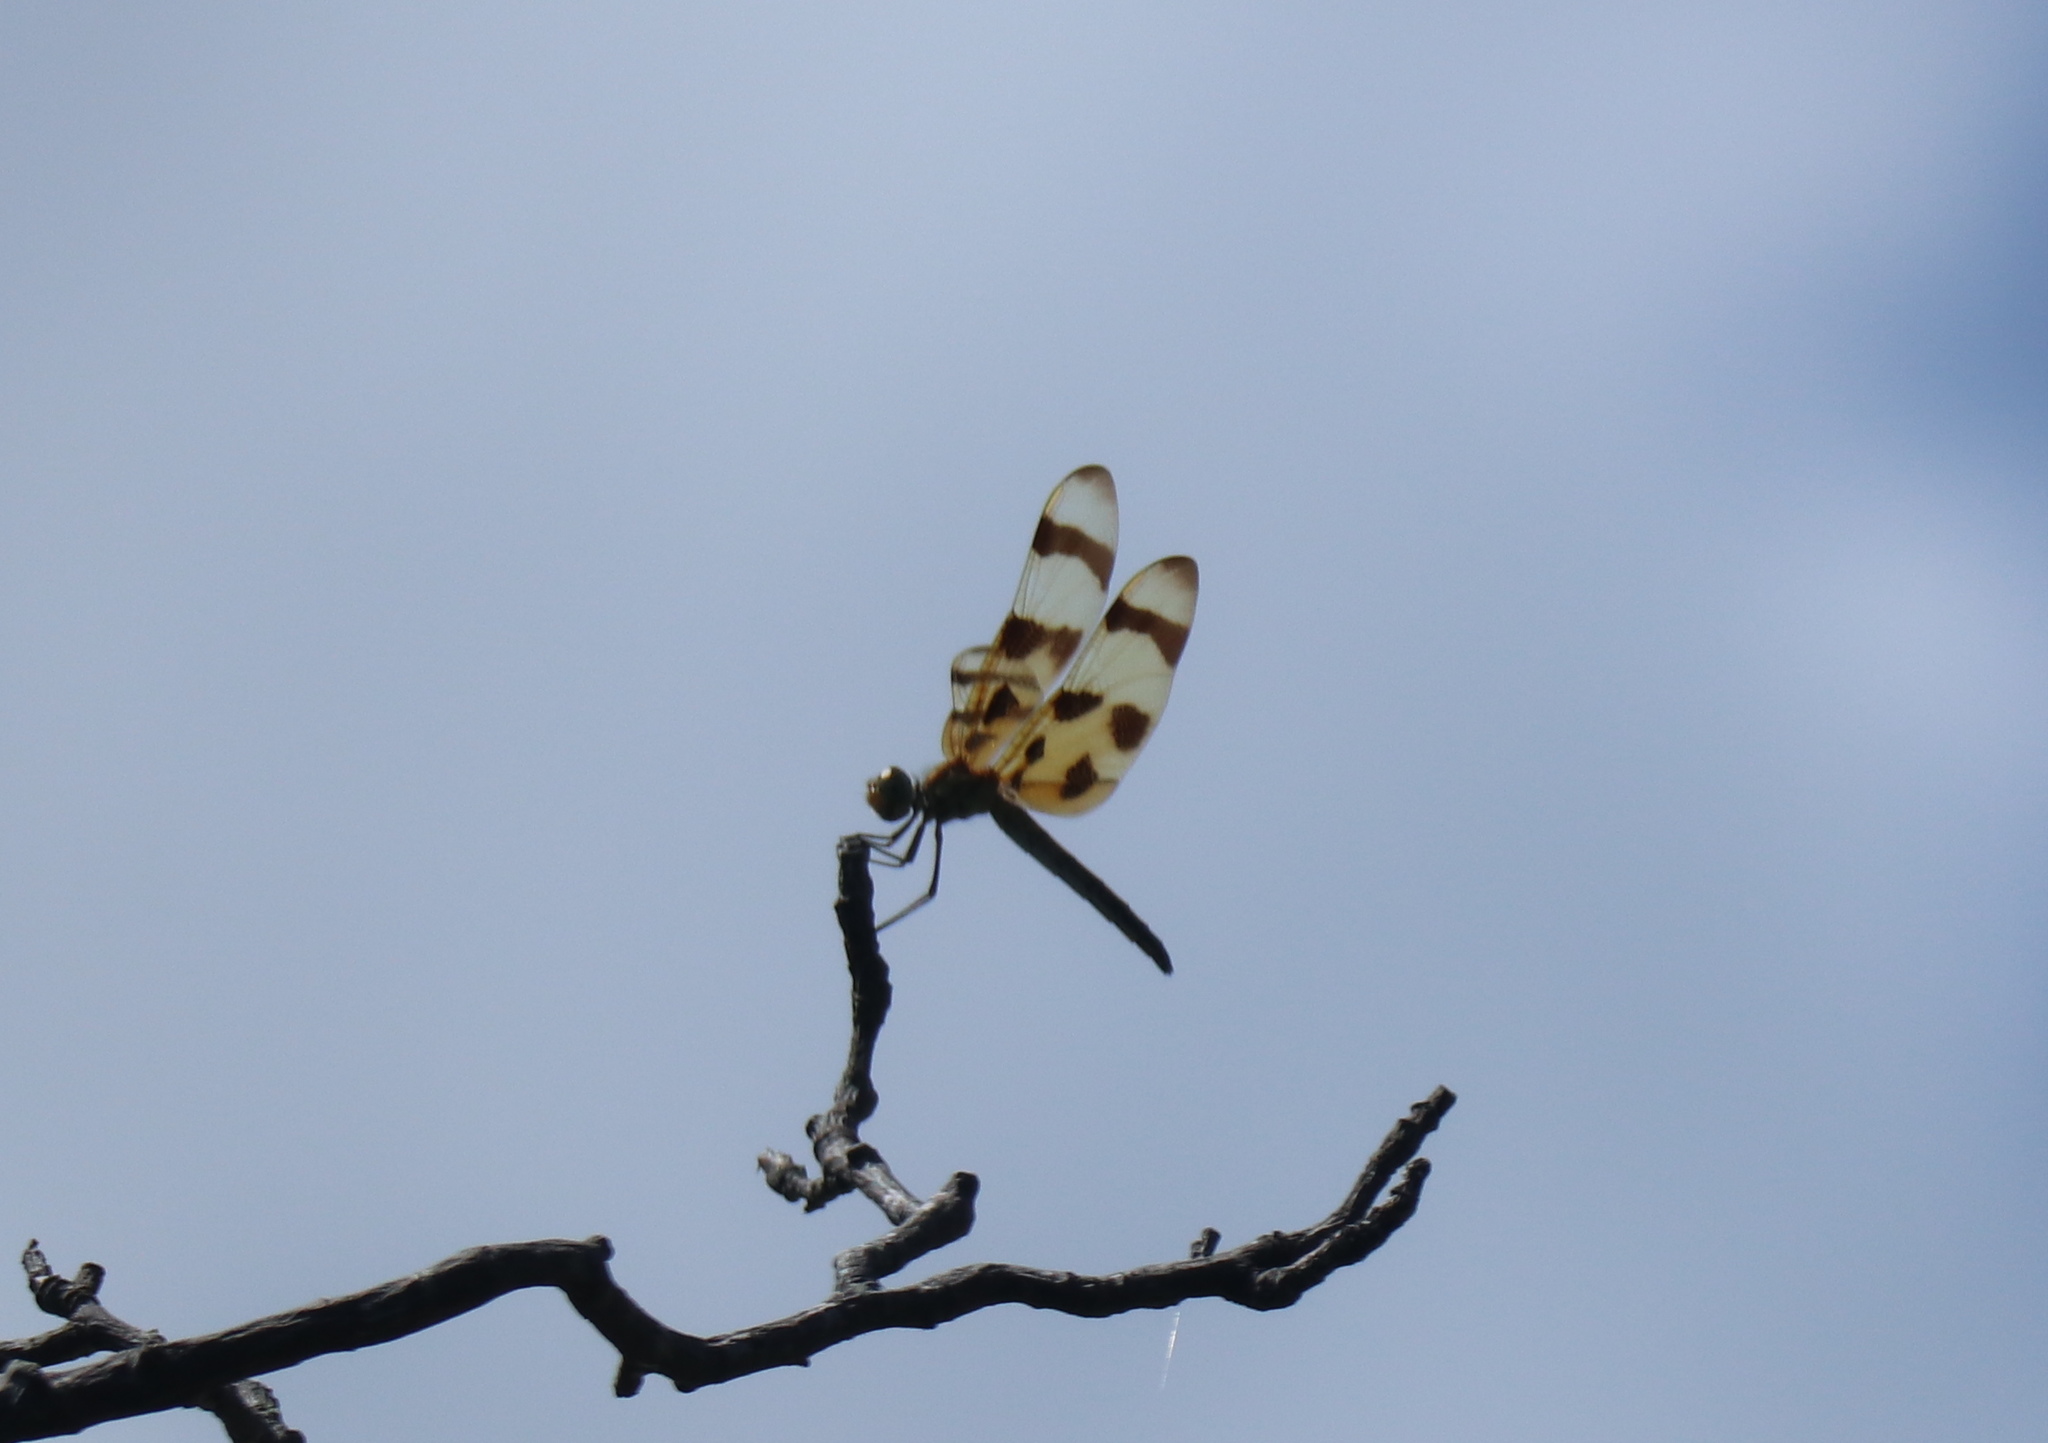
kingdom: Animalia
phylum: Arthropoda
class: Insecta
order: Odonata
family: Libellulidae
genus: Celithemis
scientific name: Celithemis eponina
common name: Halloween pennant
